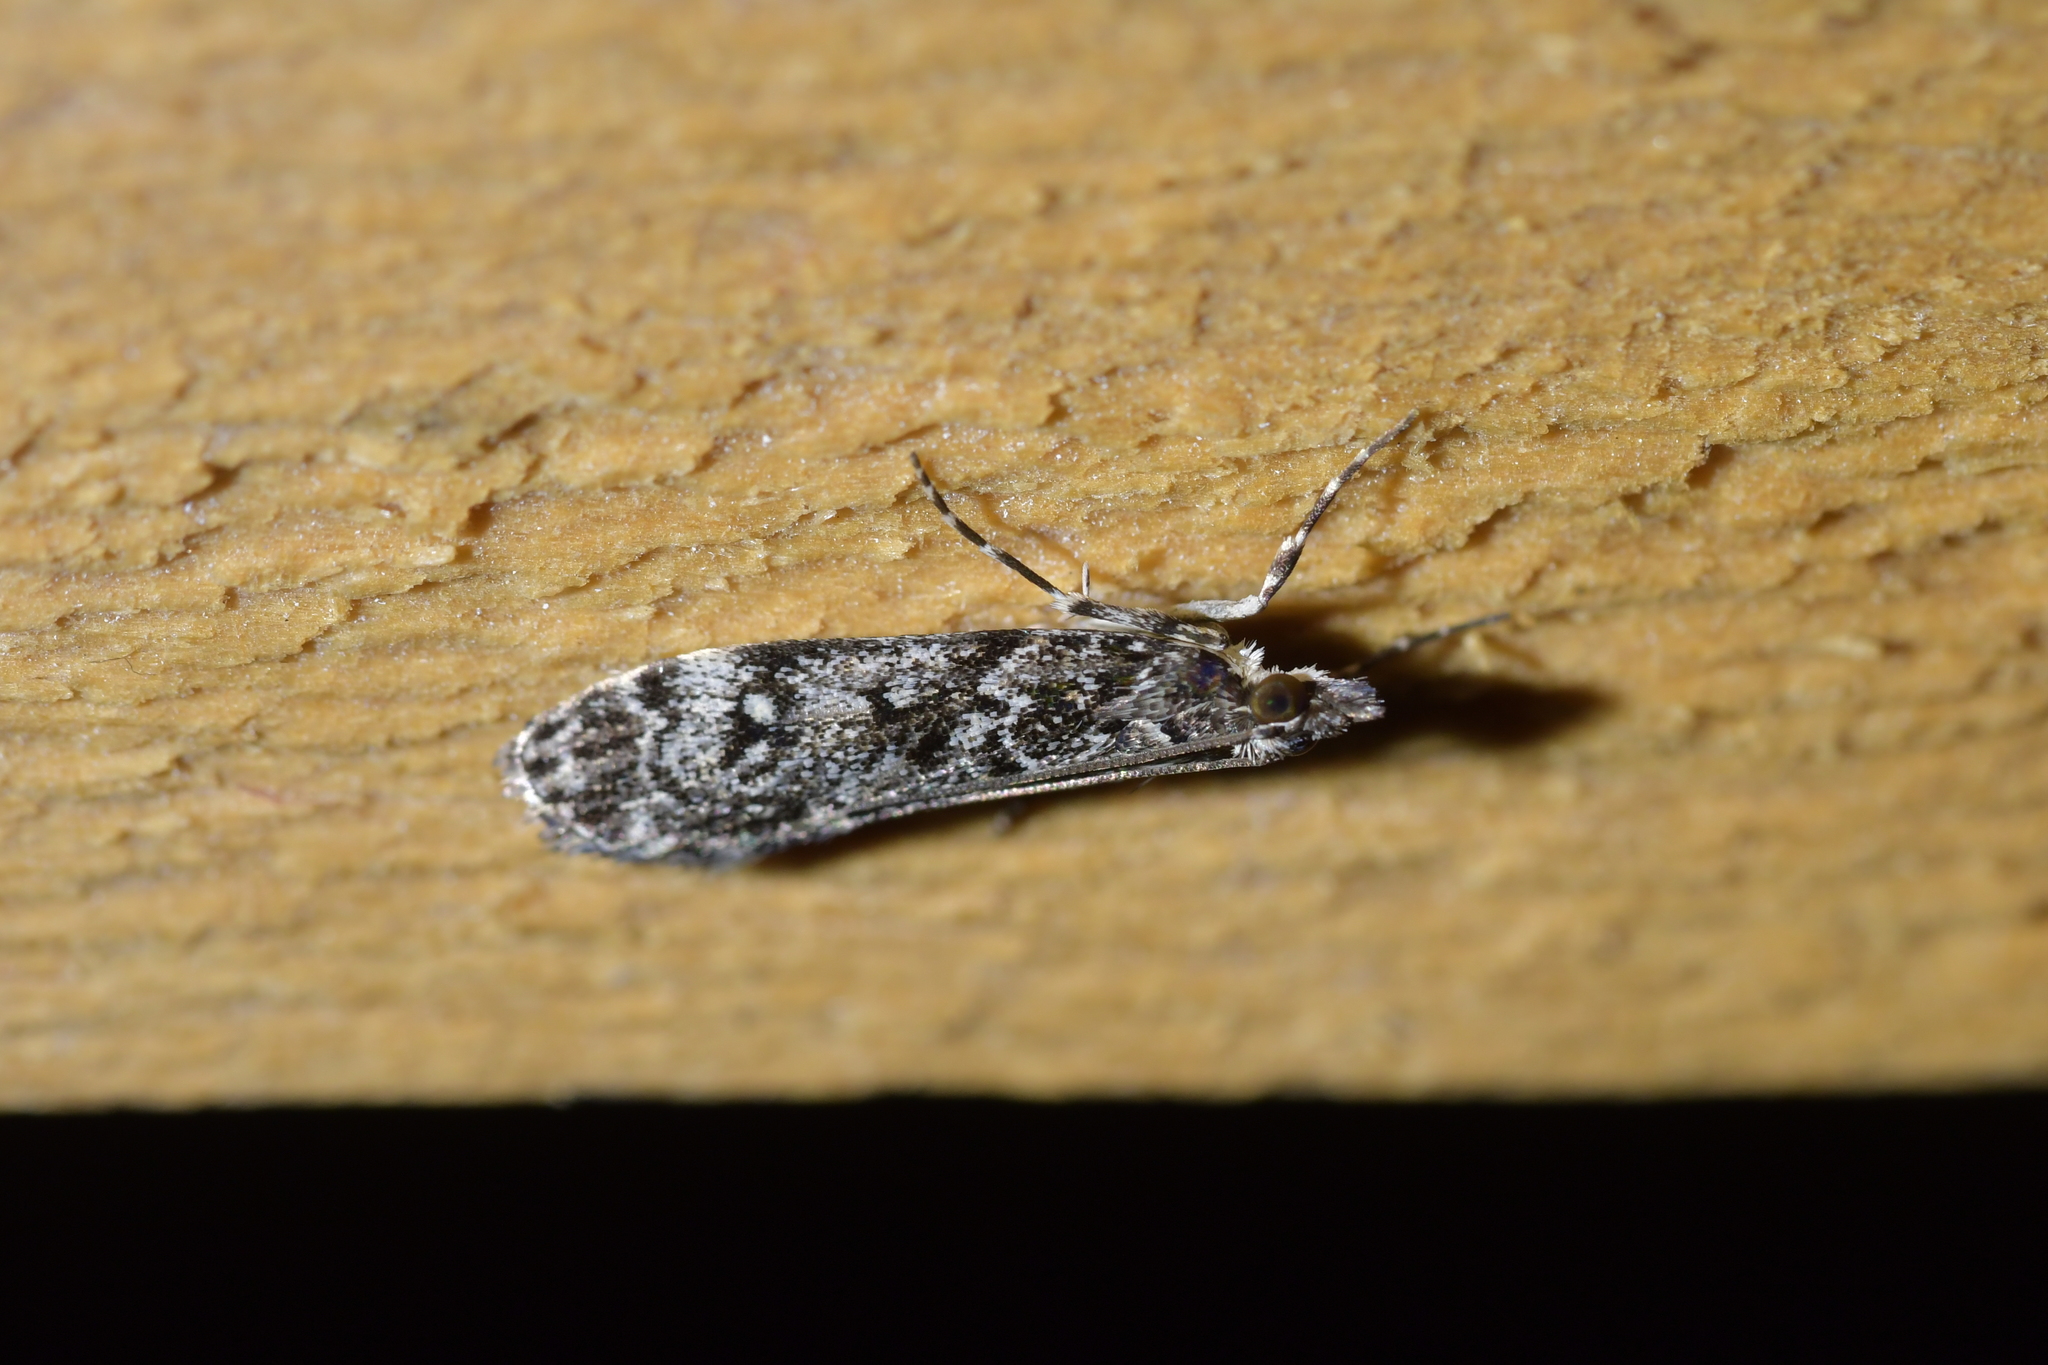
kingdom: Animalia
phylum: Arthropoda
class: Insecta
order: Lepidoptera
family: Crambidae
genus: Eudonia
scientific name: Eudonia philerga
